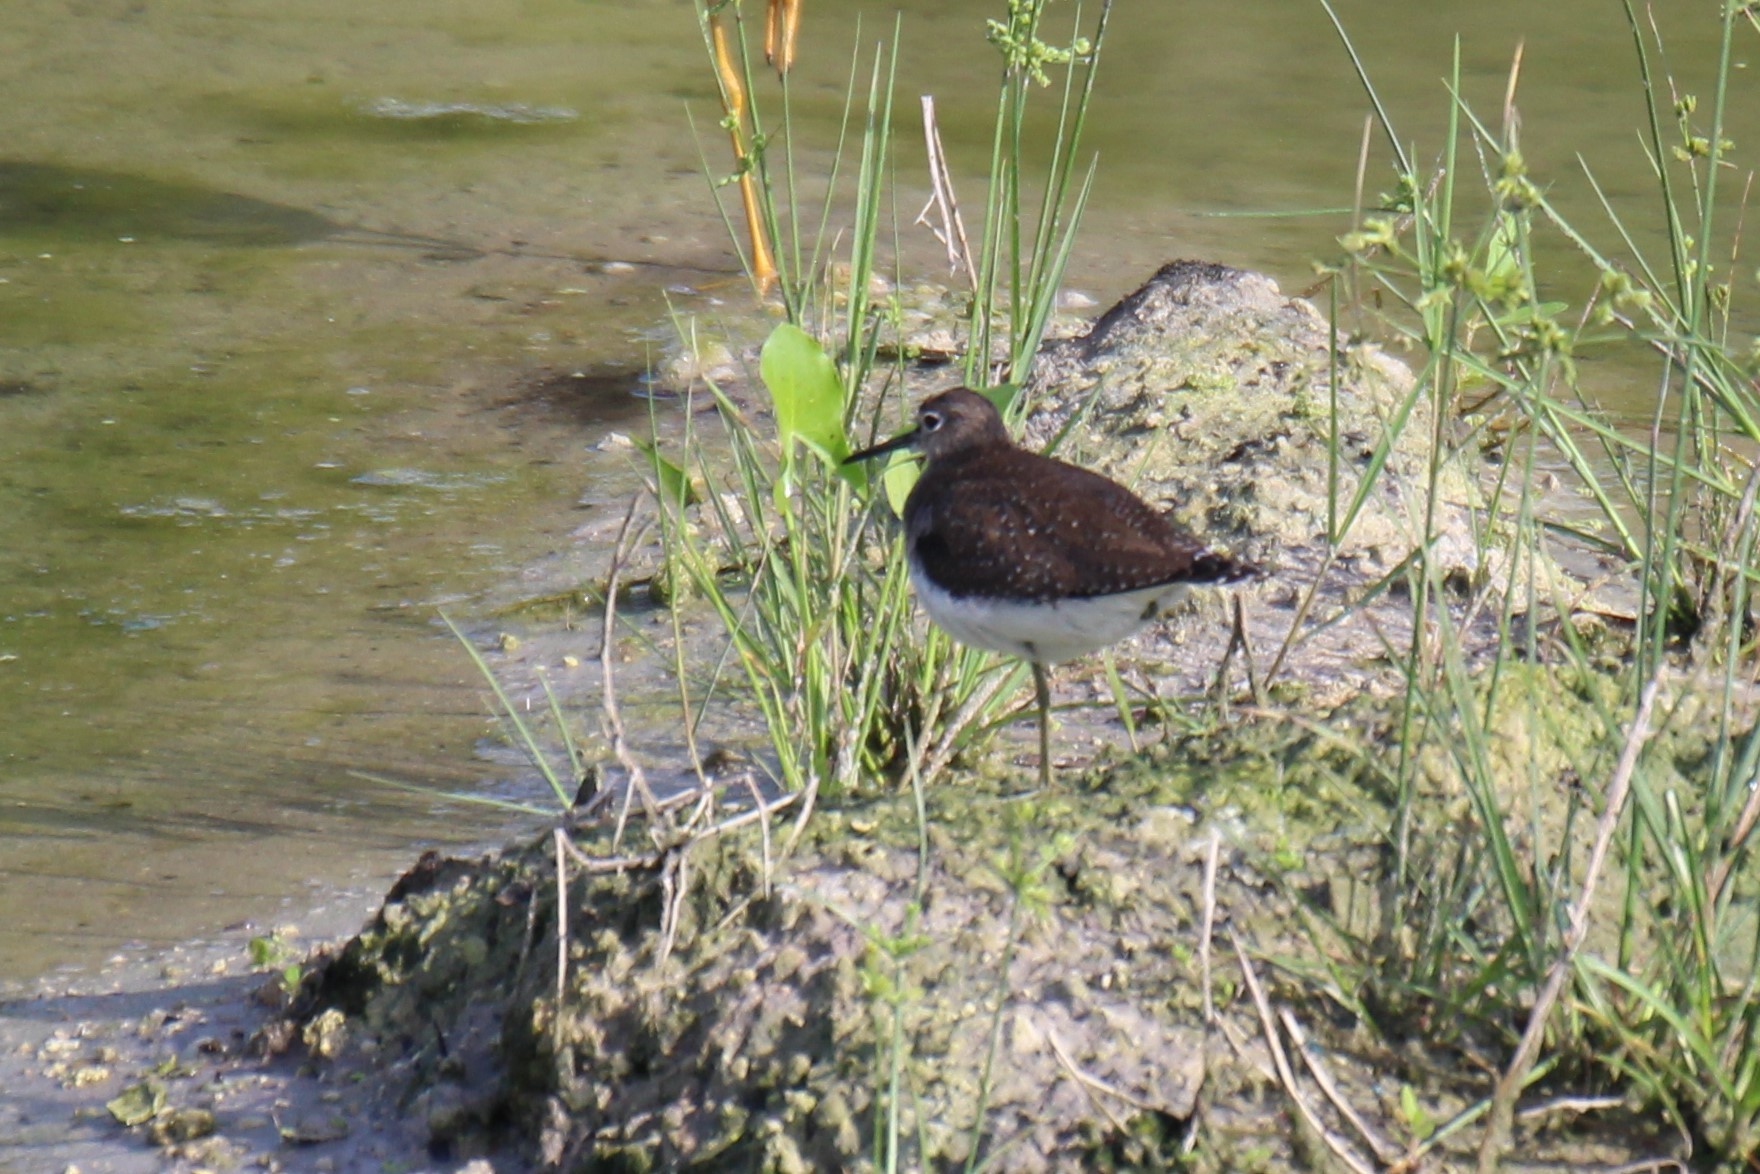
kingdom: Animalia
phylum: Chordata
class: Aves
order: Charadriiformes
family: Scolopacidae
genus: Tringa
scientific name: Tringa solitaria
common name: Solitary sandpiper
